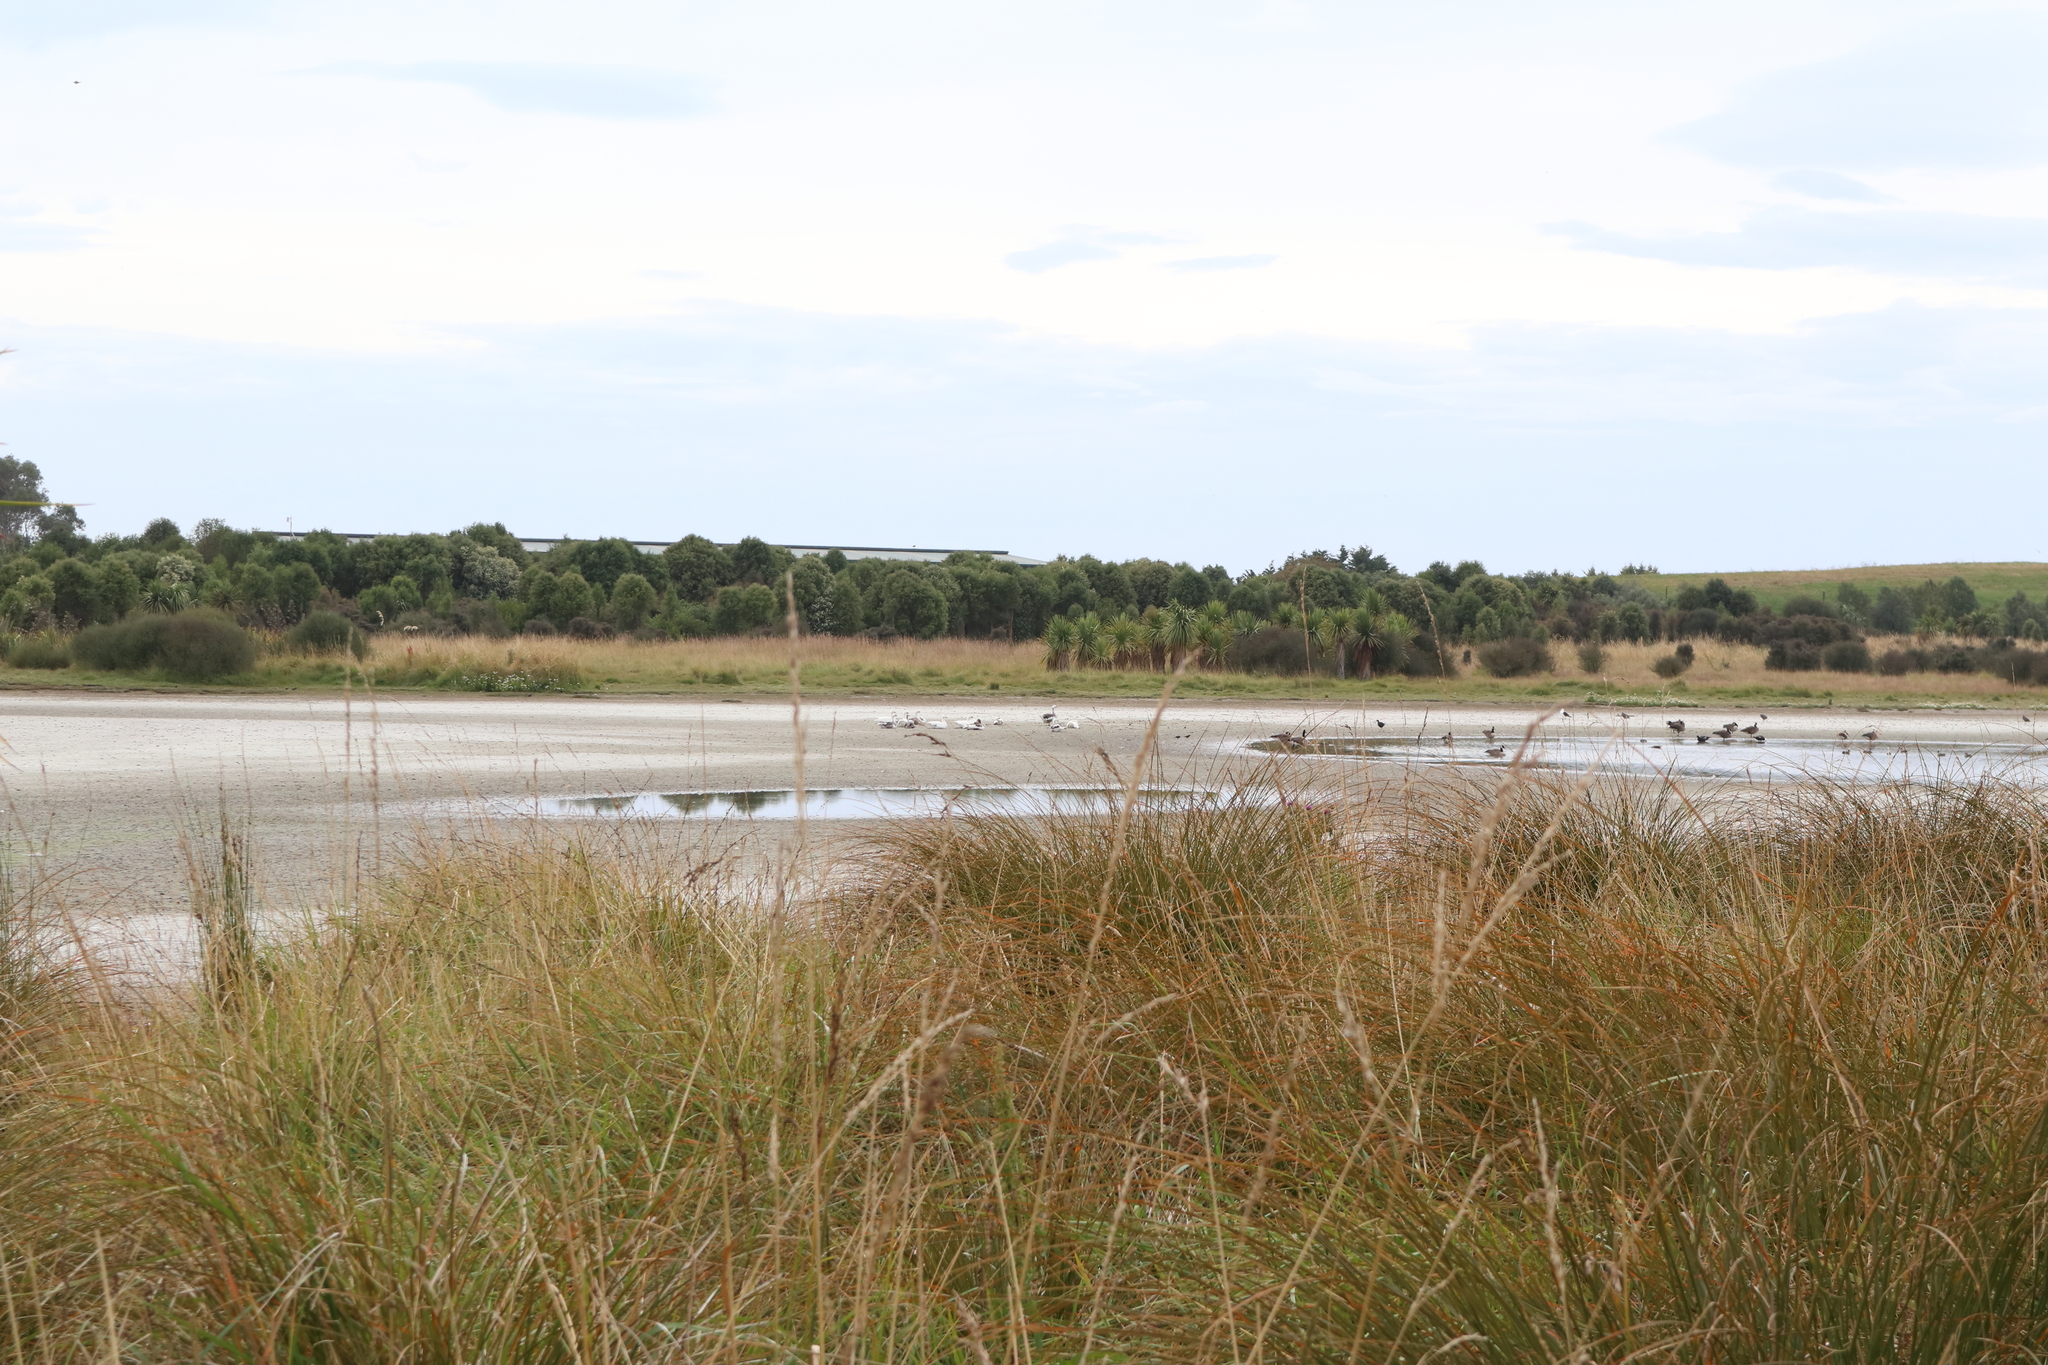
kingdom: Animalia
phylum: Chordata
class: Aves
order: Anseriformes
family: Anatidae
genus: Tadorna
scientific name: Tadorna variegata
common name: Paradise shelduck
